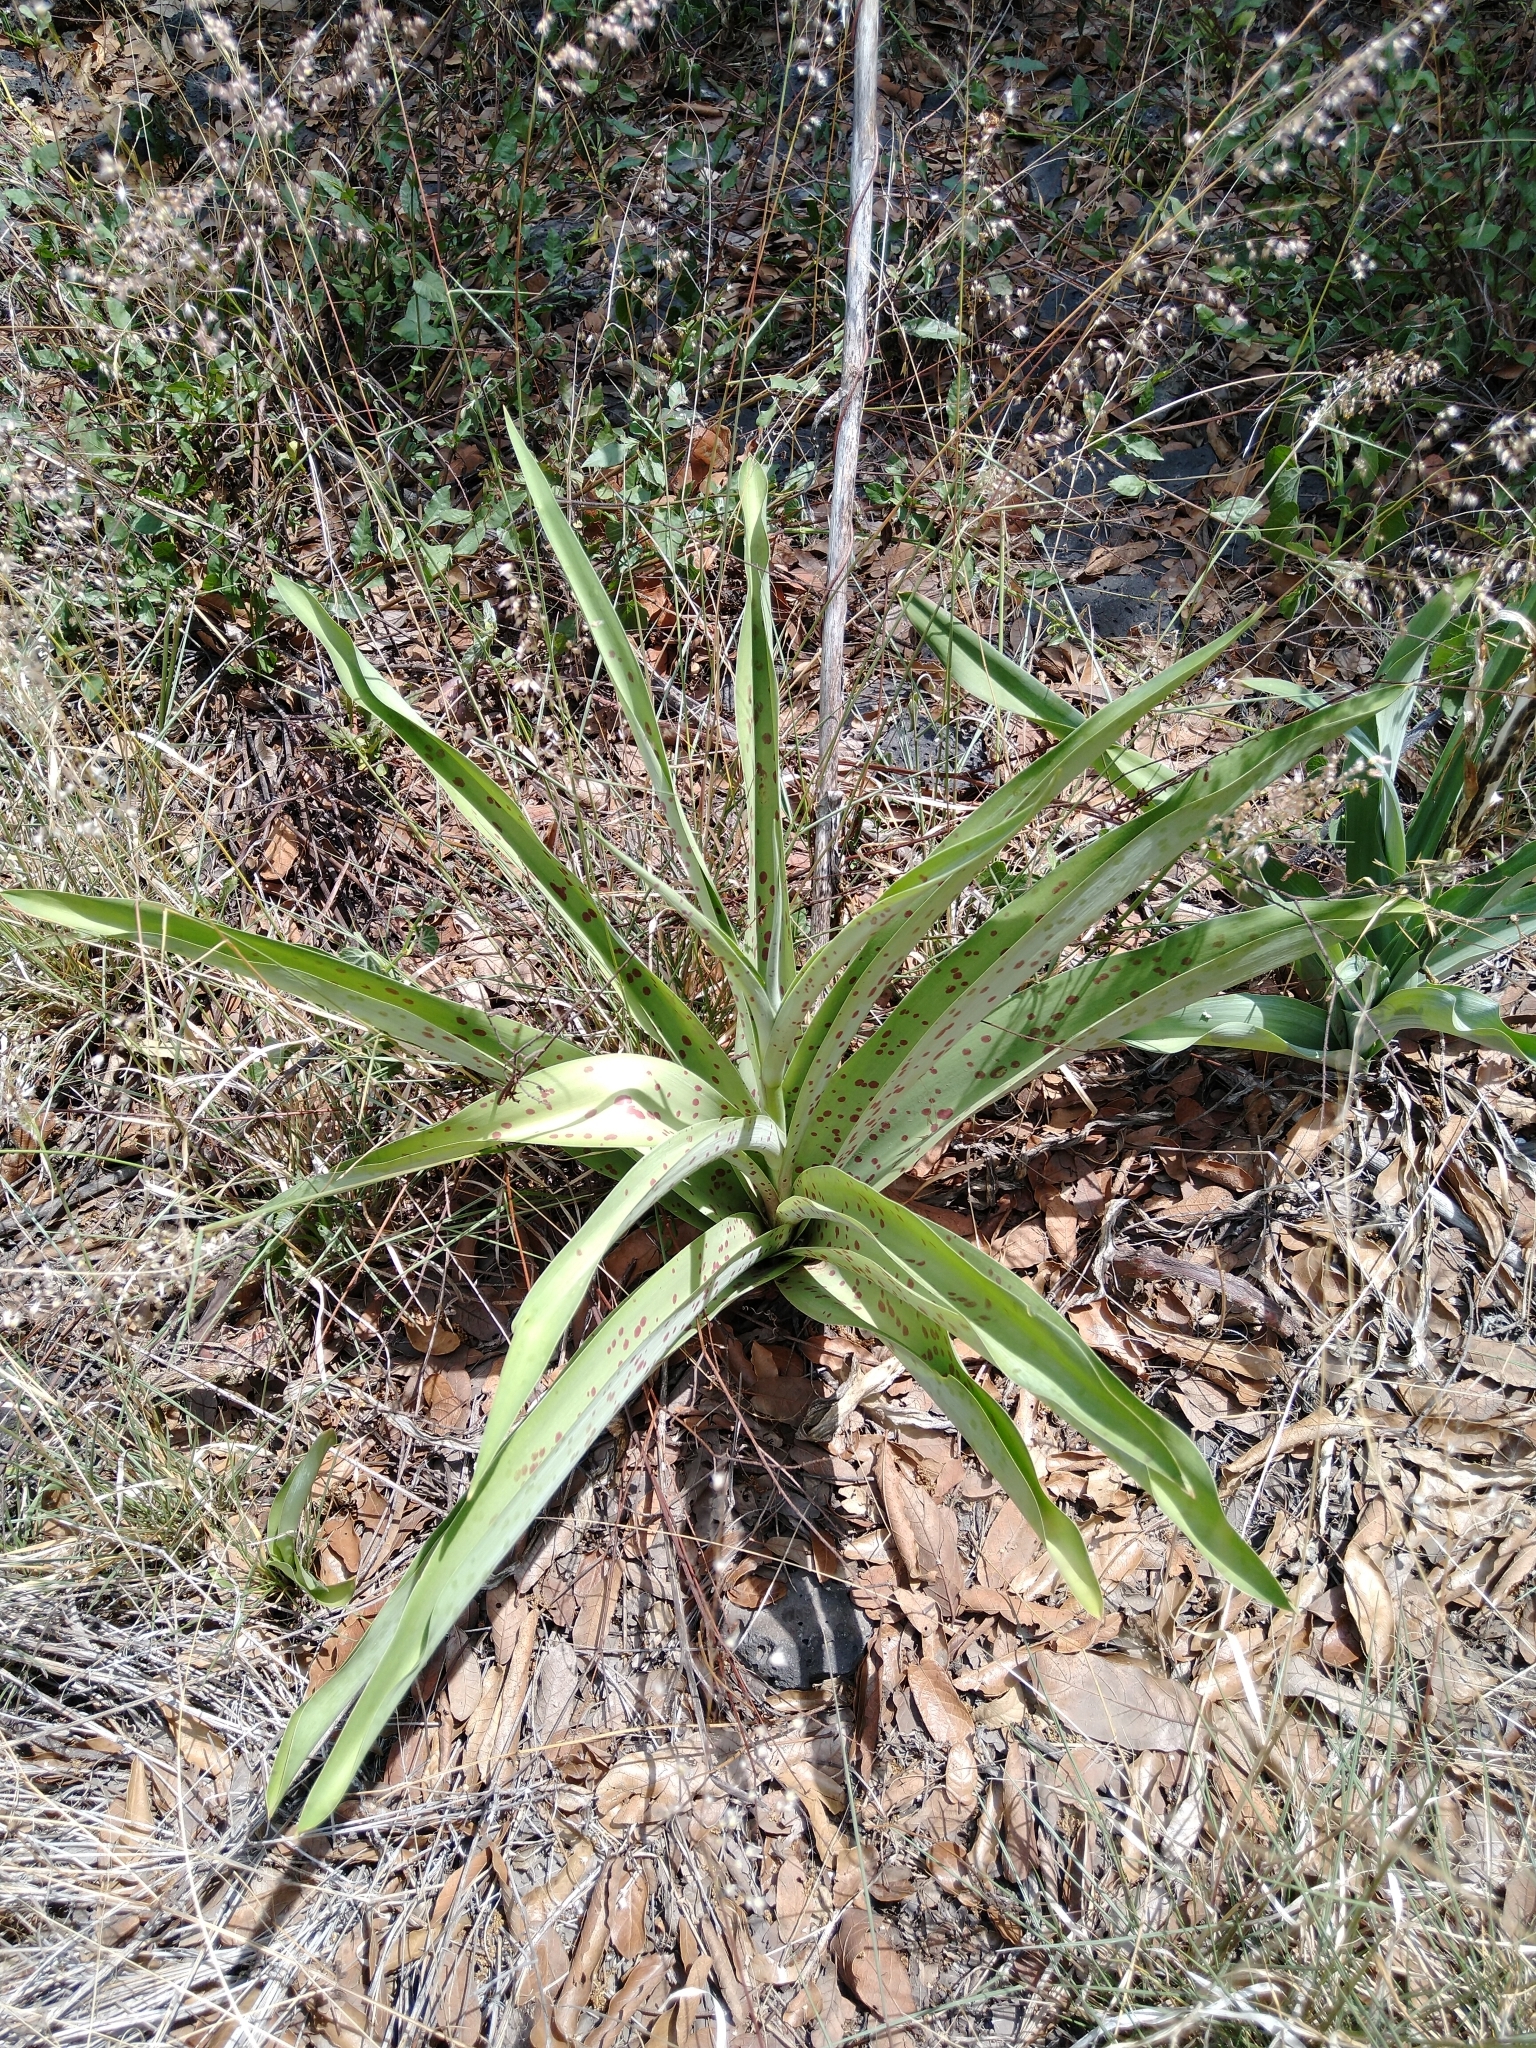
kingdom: Plantae
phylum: Tracheophyta
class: Liliopsida
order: Asparagales
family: Asparagaceae
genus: Agave
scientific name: Agave scabra
